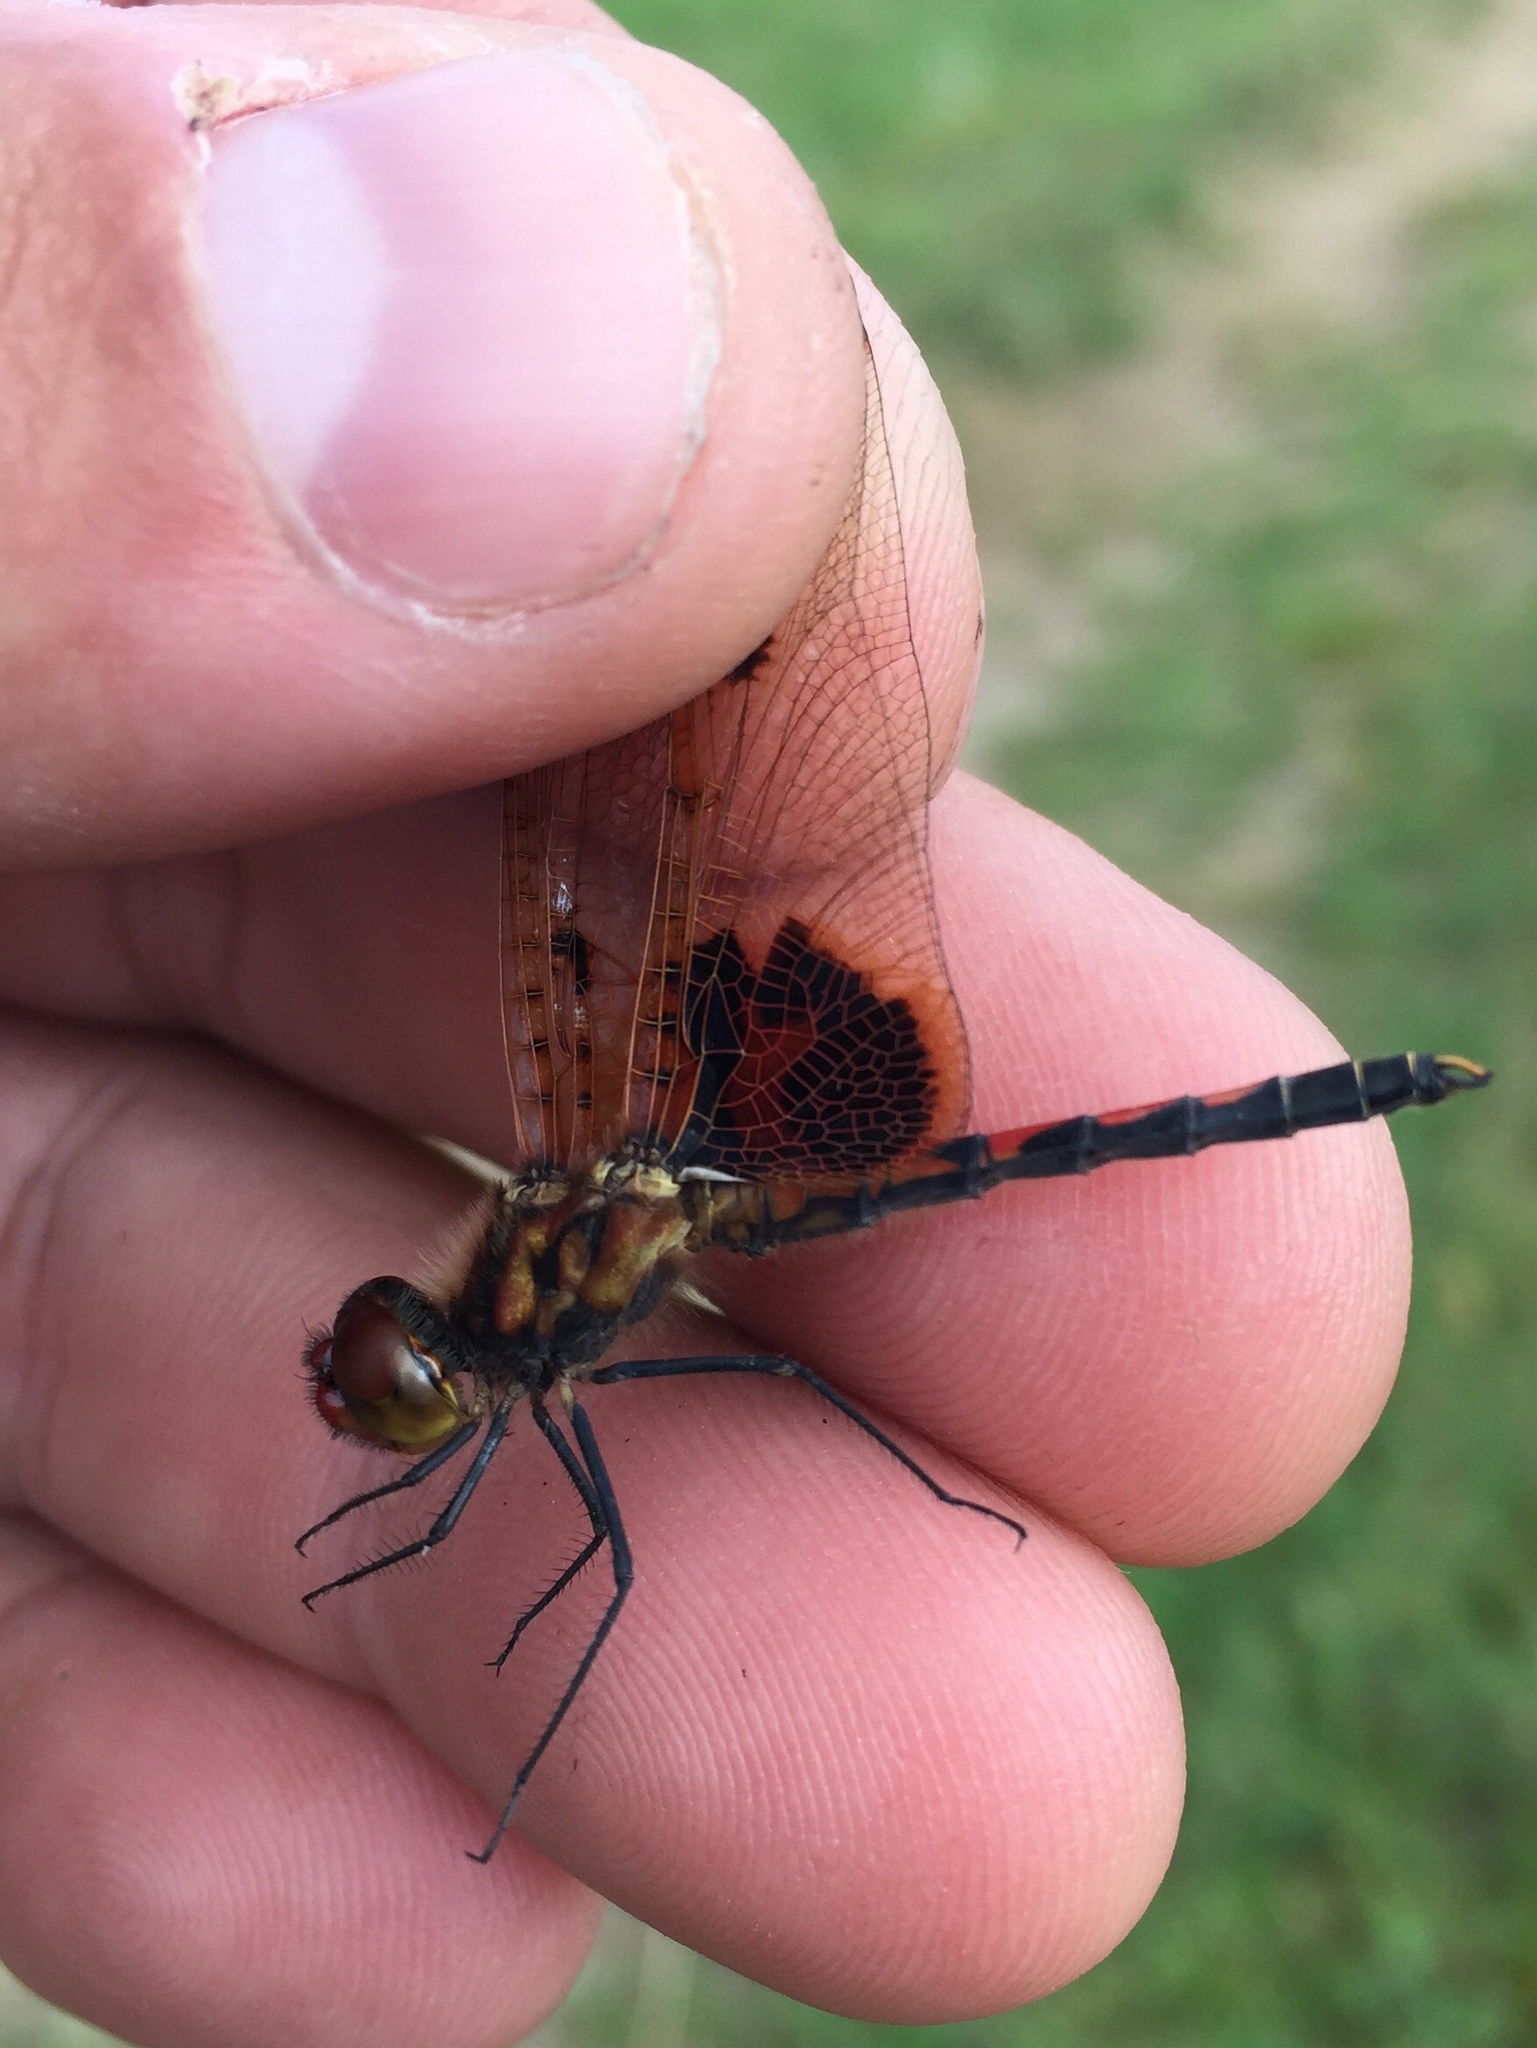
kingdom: Animalia
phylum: Arthropoda
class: Insecta
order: Odonata
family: Libellulidae
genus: Celithemis
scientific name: Celithemis elisa
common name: Calico pennant
